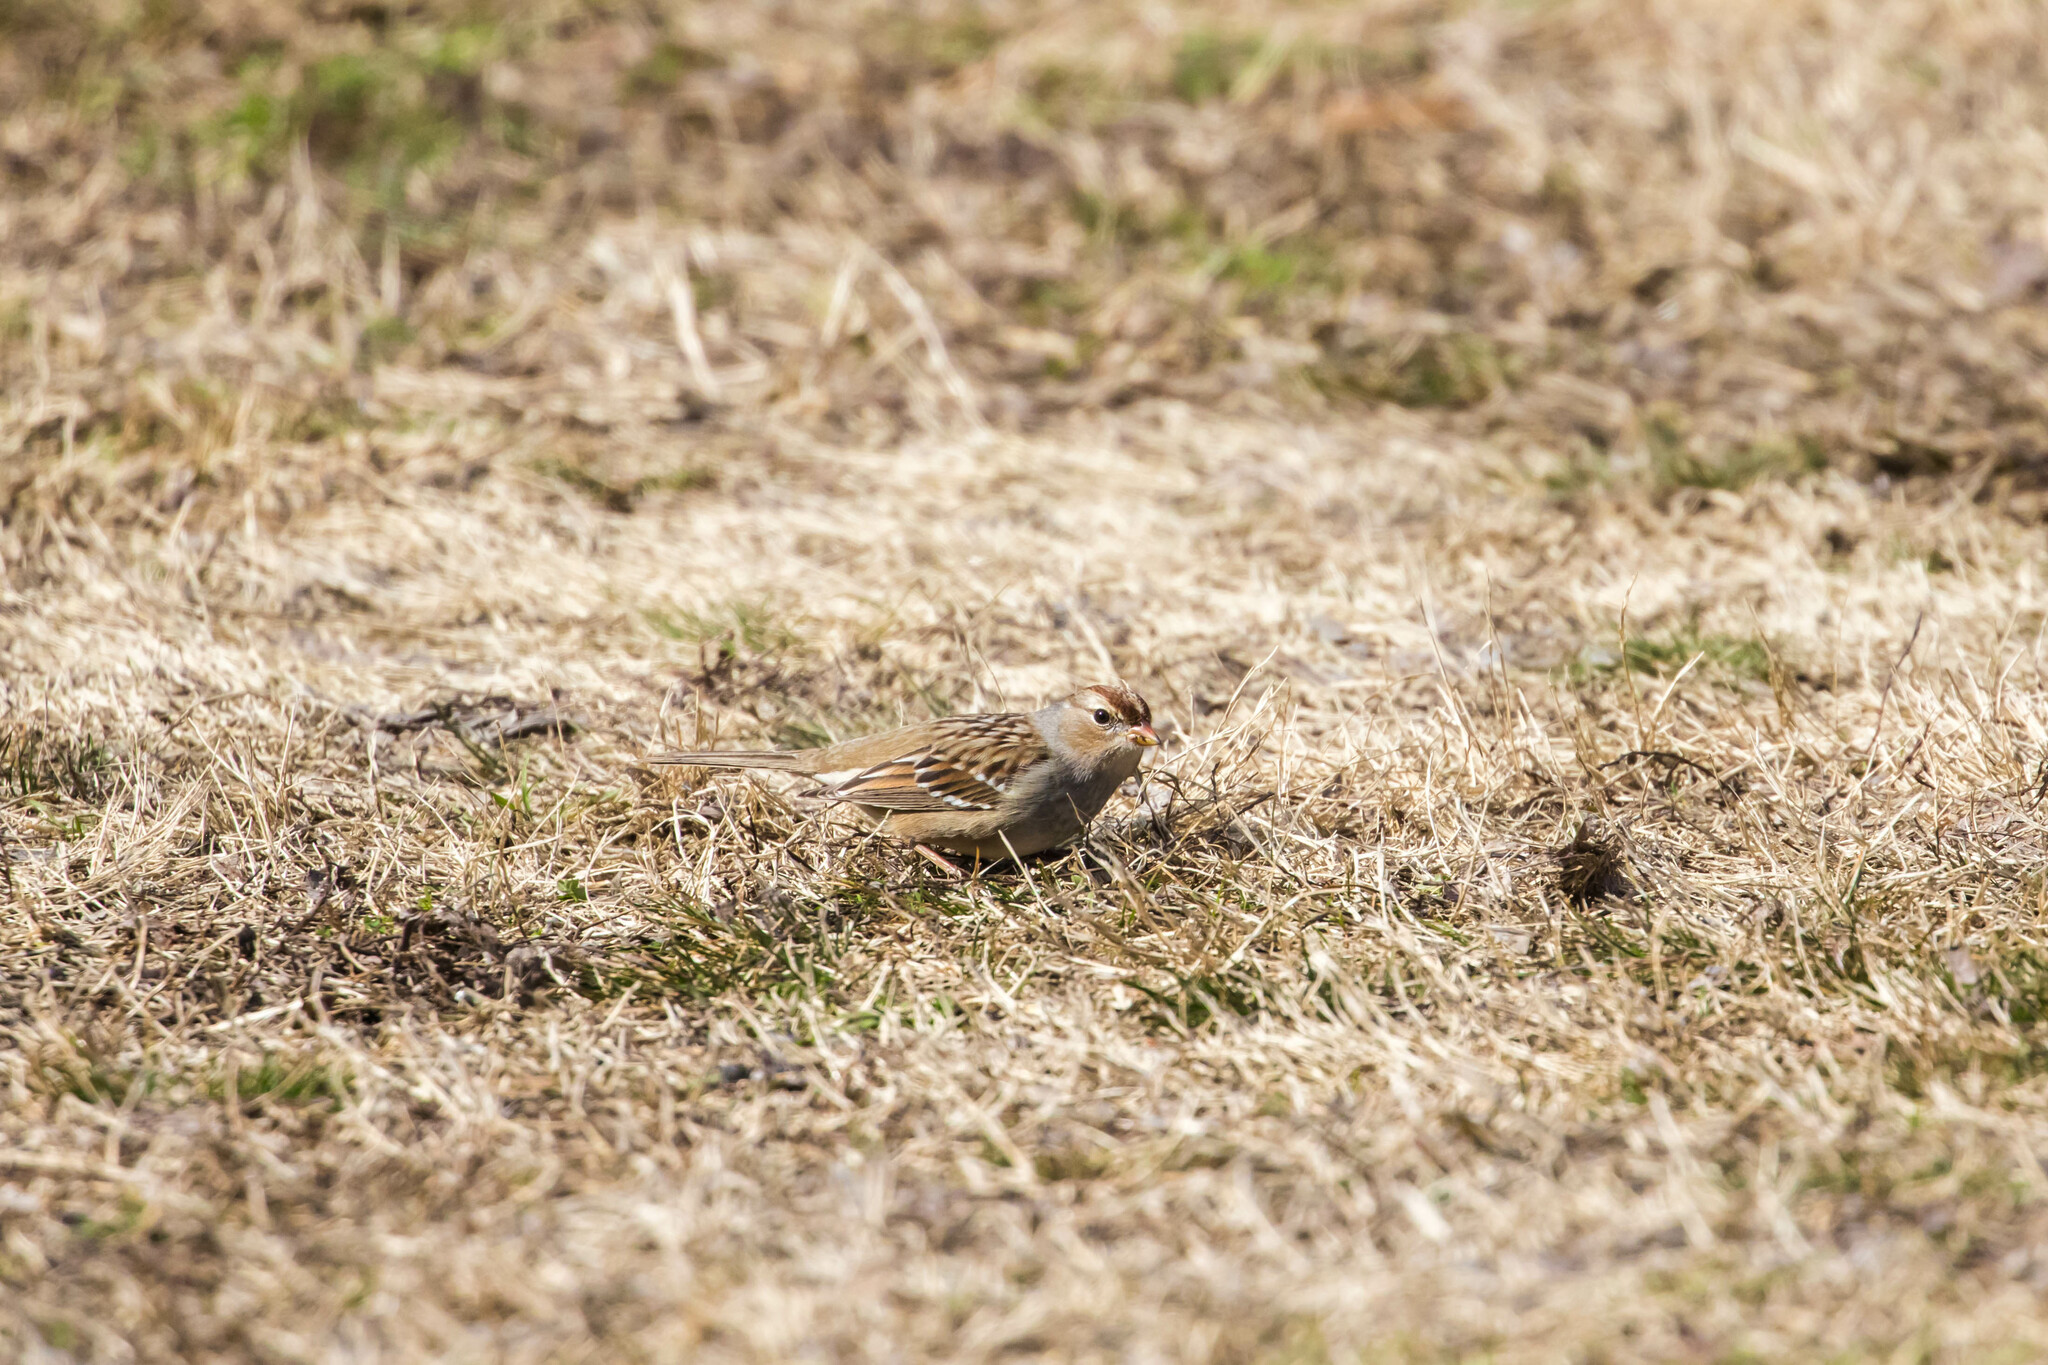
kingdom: Animalia
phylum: Chordata
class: Aves
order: Passeriformes
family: Passerellidae
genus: Zonotrichia
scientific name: Zonotrichia leucophrys
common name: White-crowned sparrow
